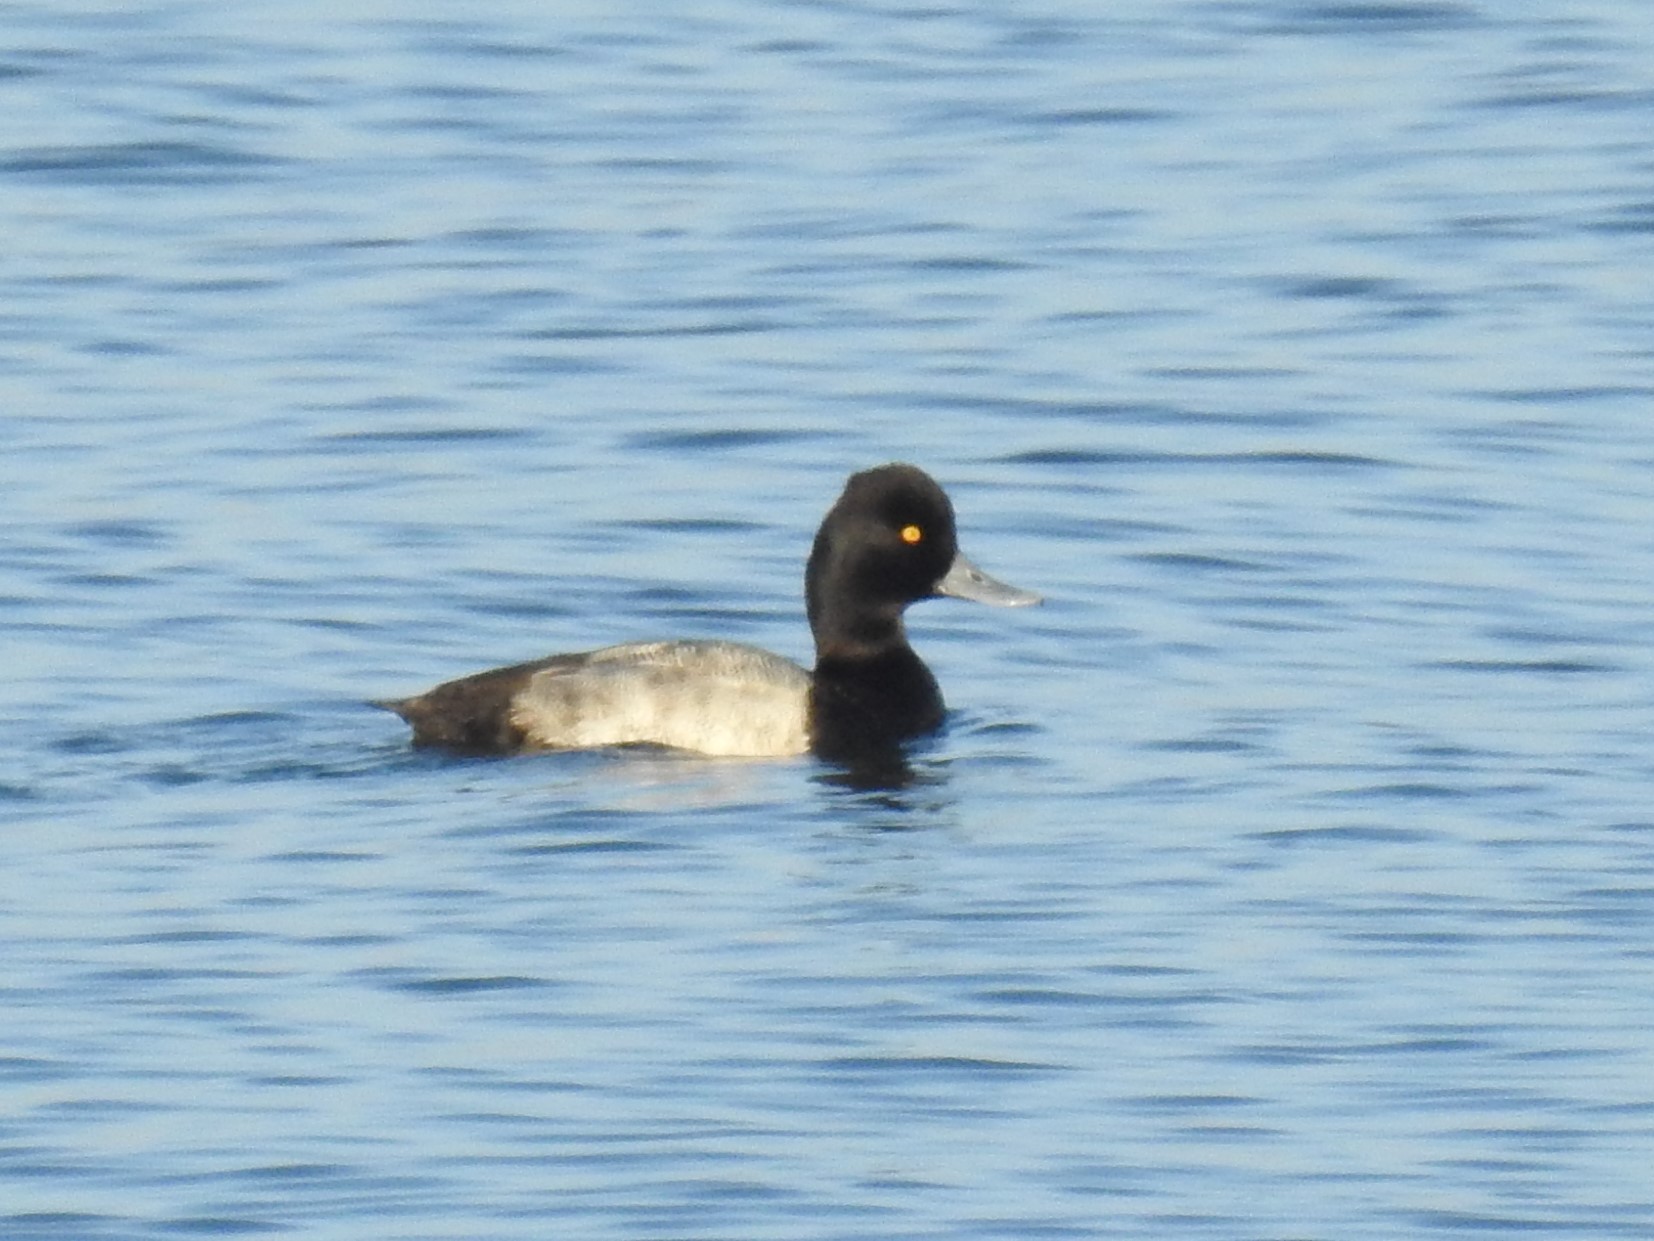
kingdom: Animalia
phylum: Chordata
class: Aves
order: Anseriformes
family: Anatidae
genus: Aythya
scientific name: Aythya affinis
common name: Lesser scaup
